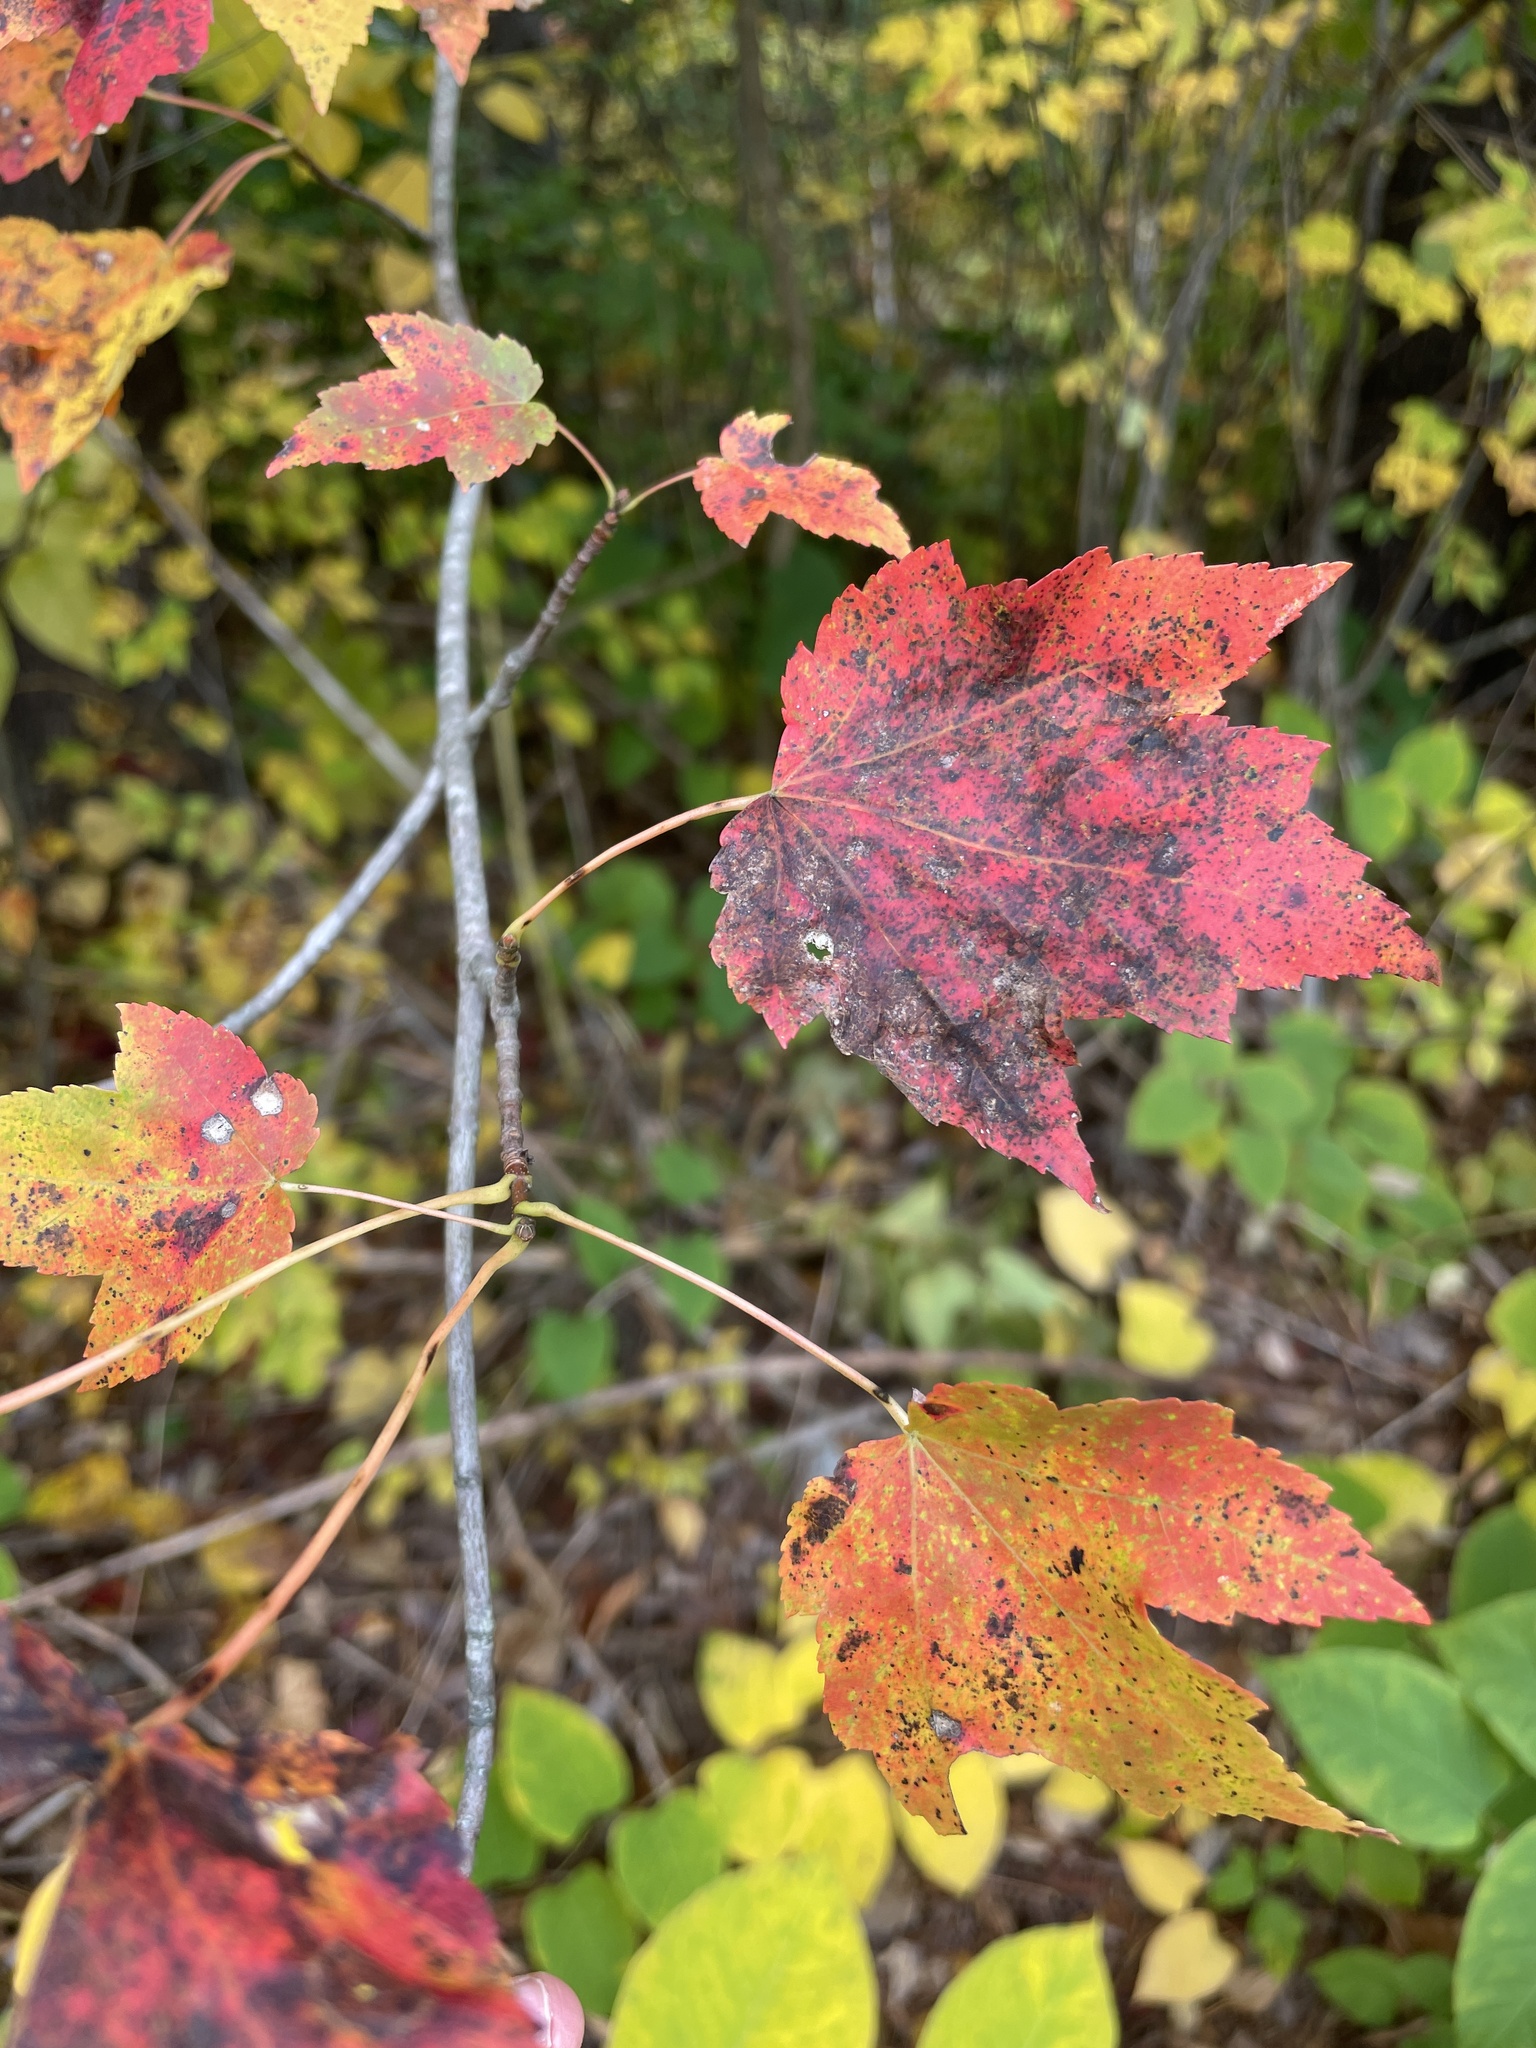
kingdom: Plantae
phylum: Tracheophyta
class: Magnoliopsida
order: Sapindales
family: Sapindaceae
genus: Acer
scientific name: Acer rubrum
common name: Red maple
